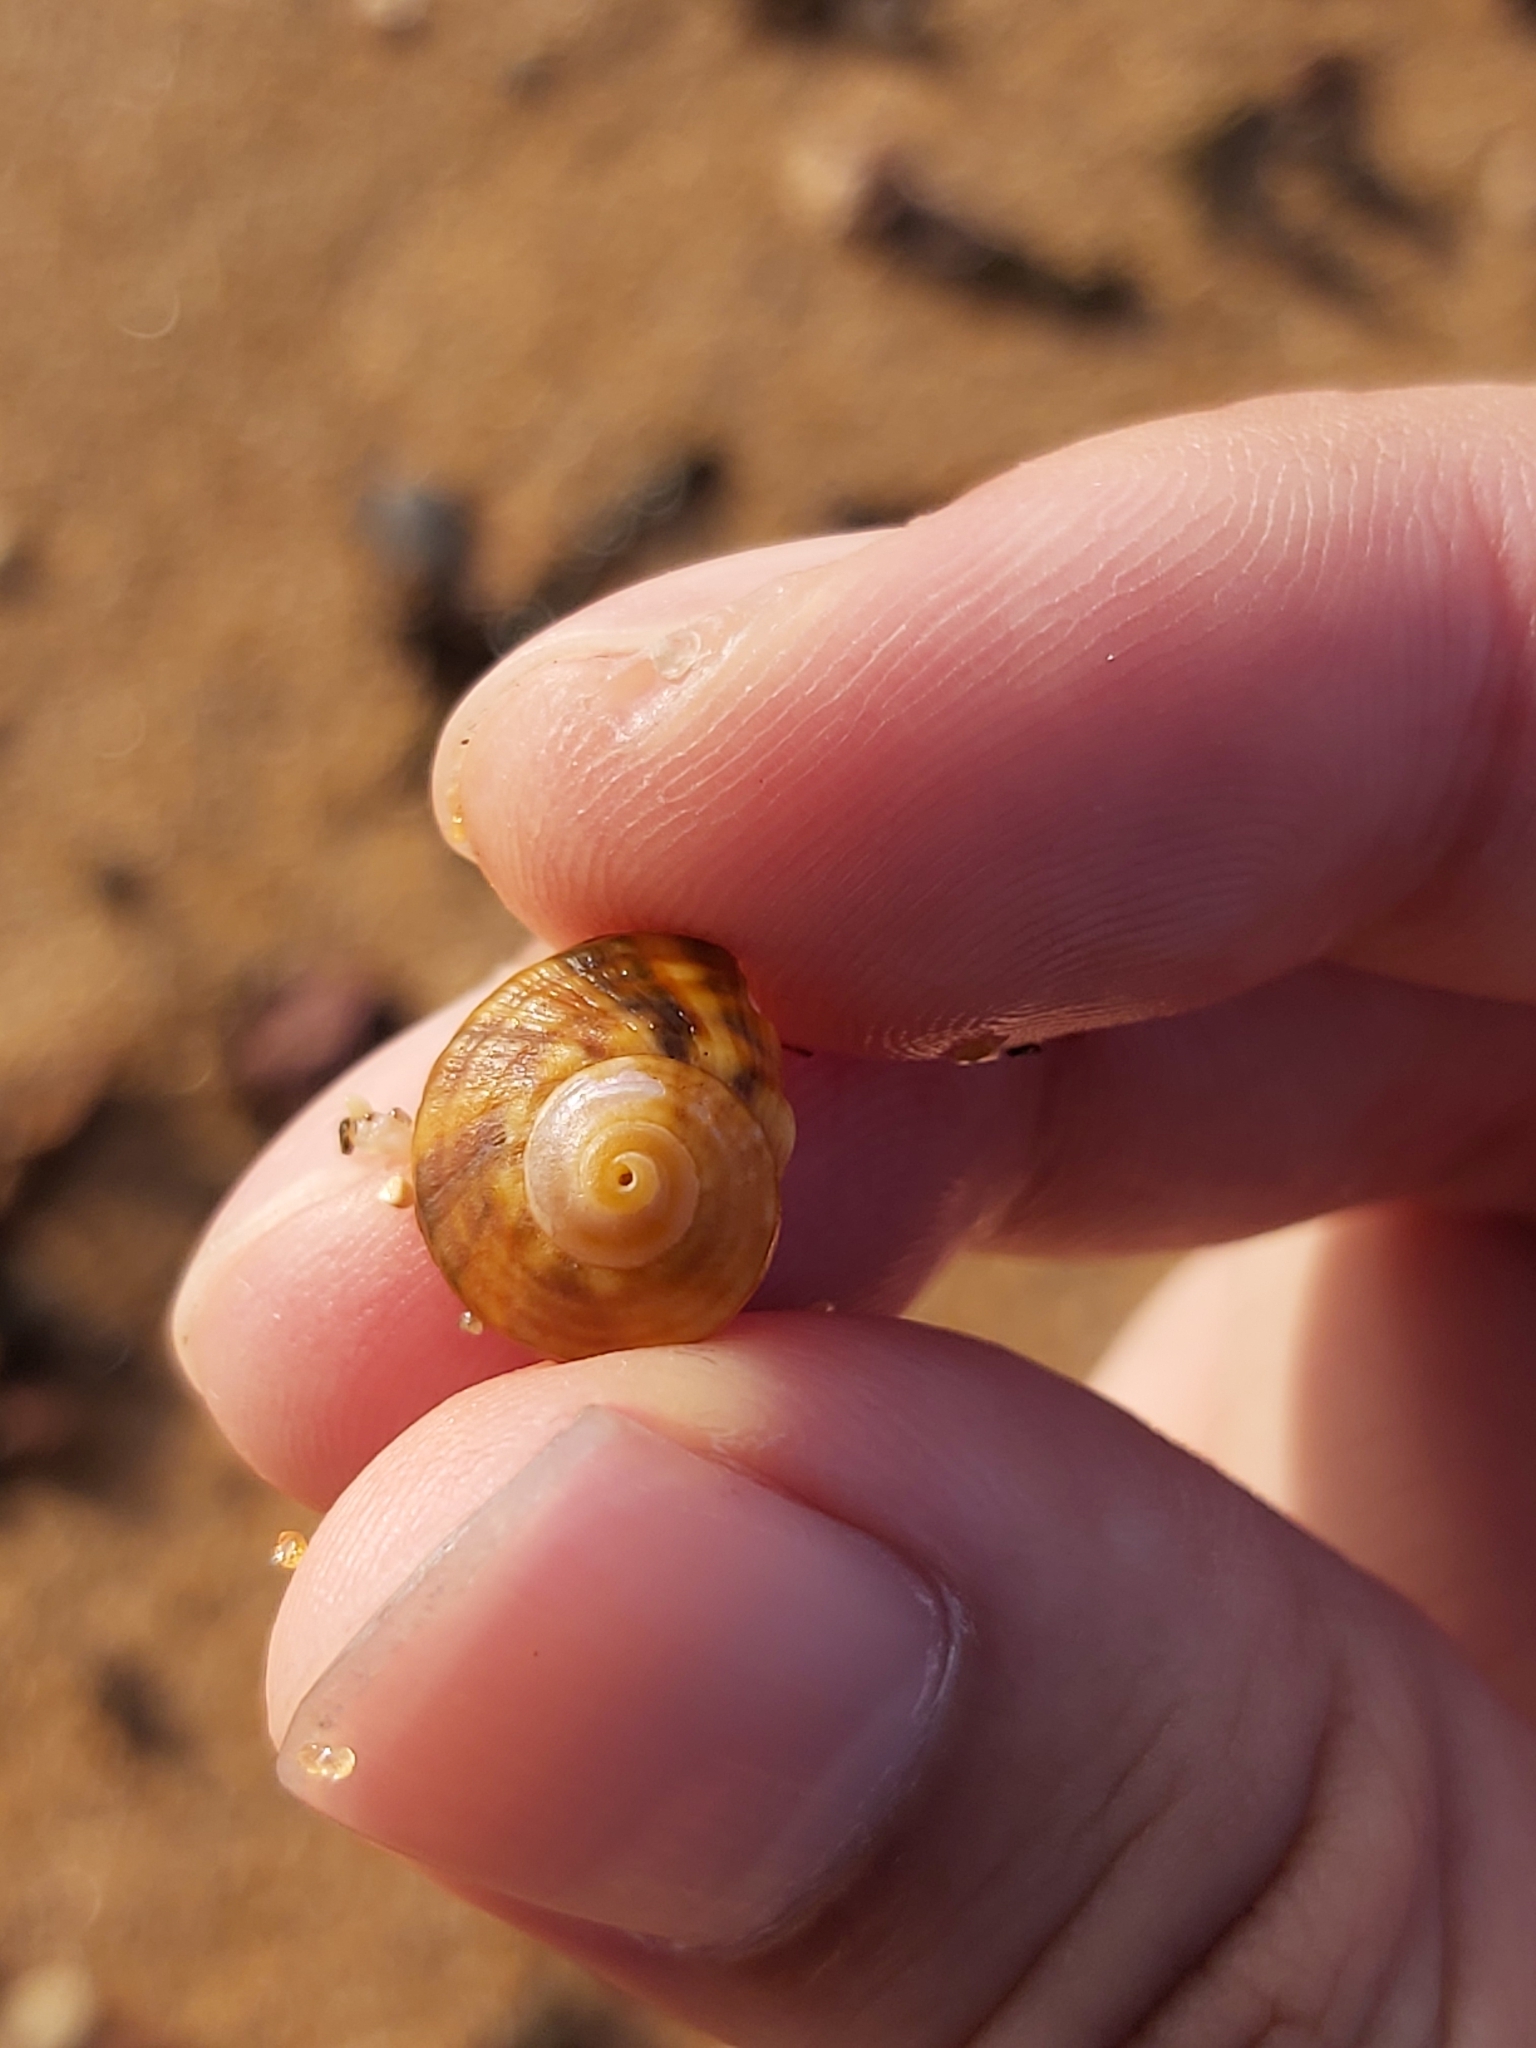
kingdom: Animalia
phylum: Mollusca
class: Gastropoda
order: Trochida
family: Turbinidae
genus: Lunella
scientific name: Lunella undulata
